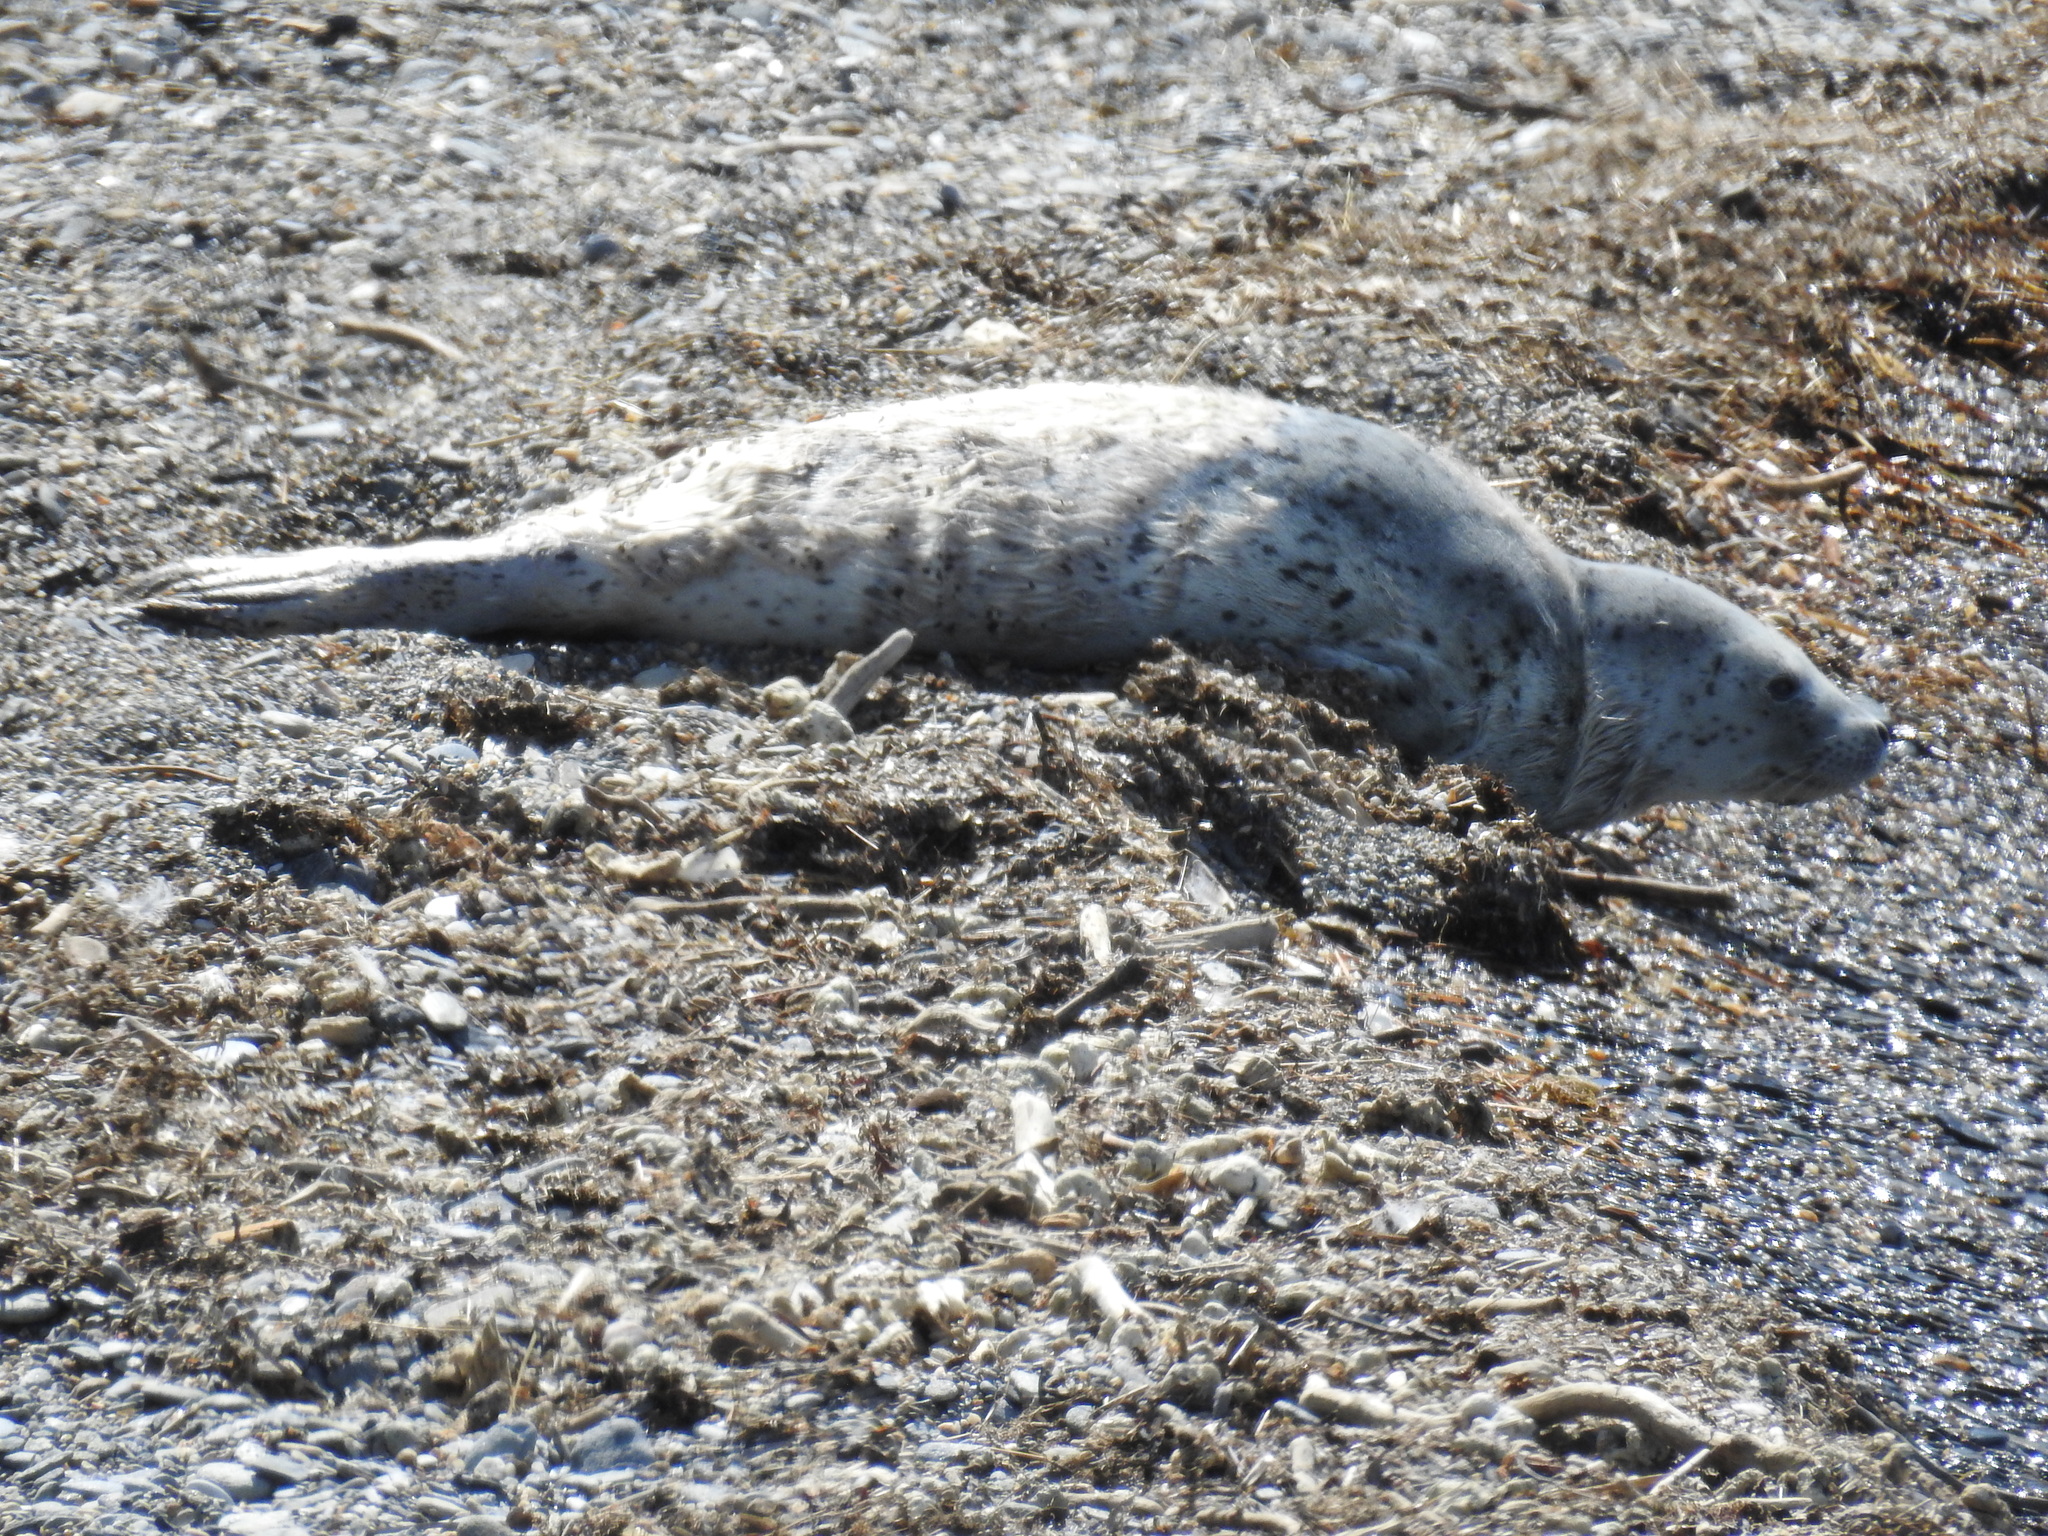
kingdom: Animalia
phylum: Chordata
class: Mammalia
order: Carnivora
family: Phocidae
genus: Phoca
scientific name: Phoca largha
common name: Spotted seal
